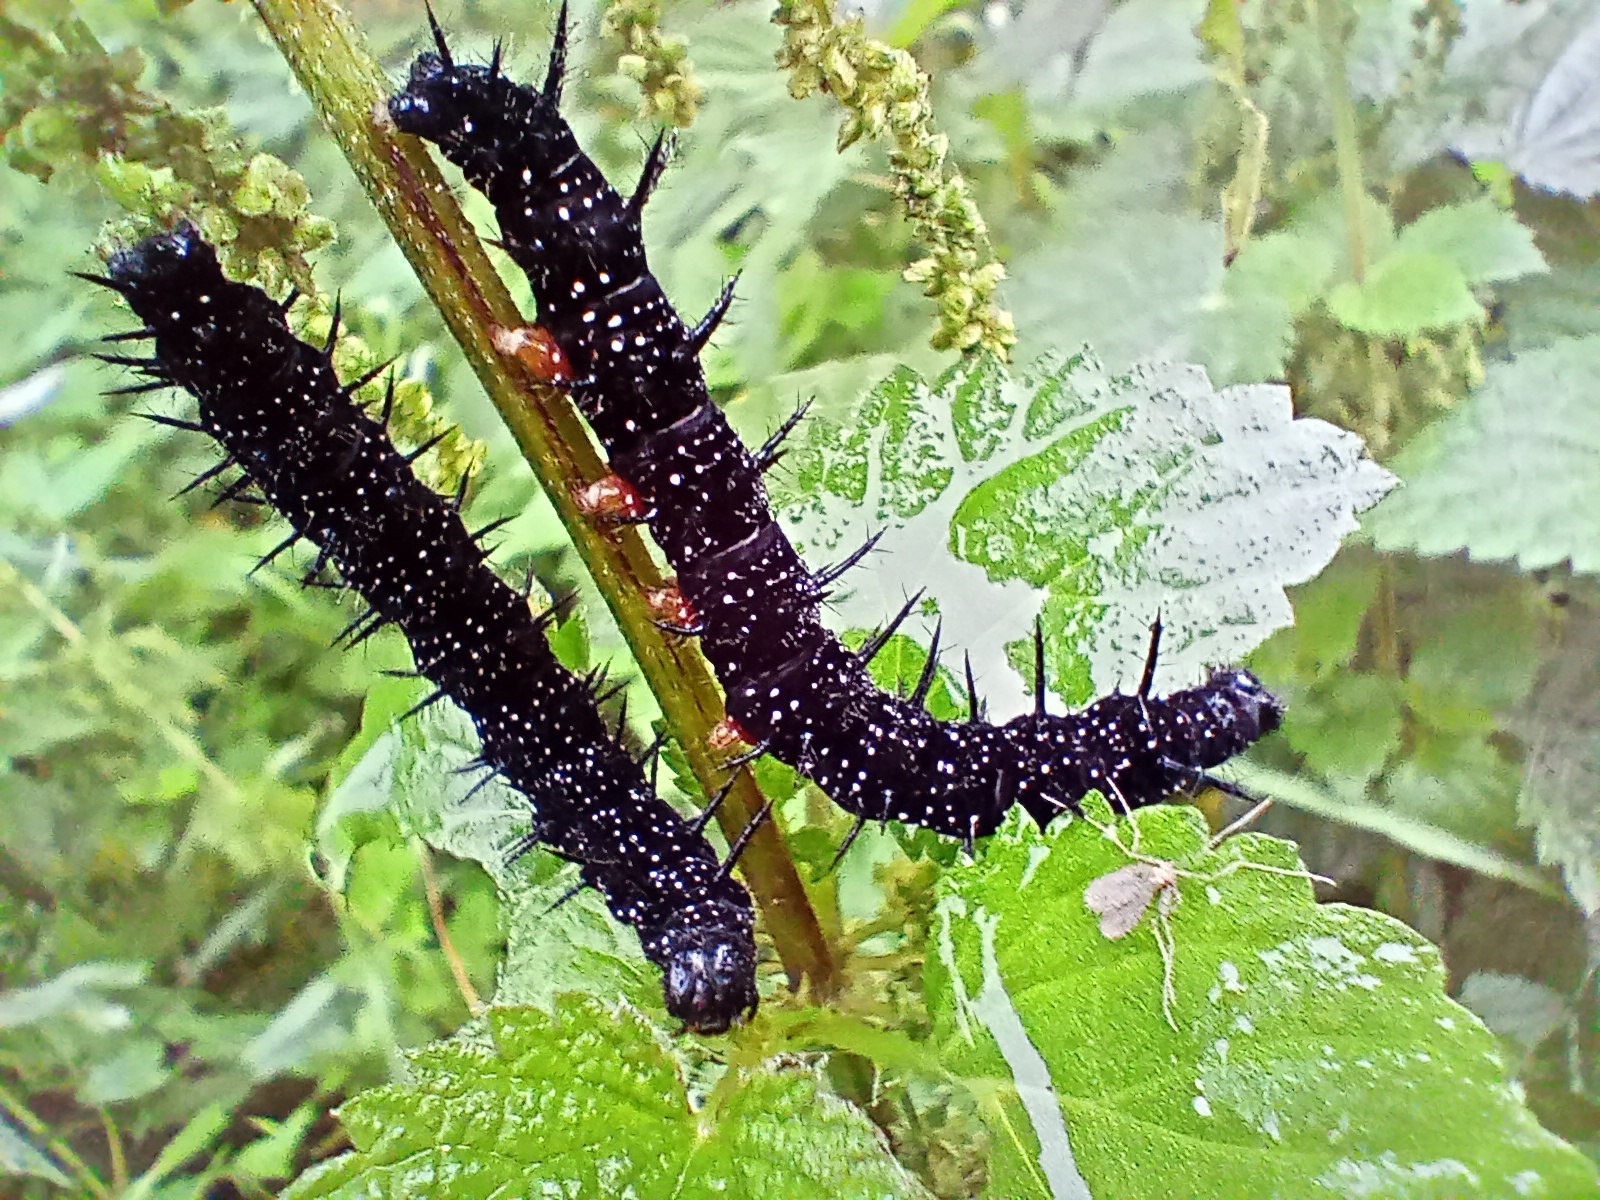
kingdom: Animalia
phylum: Arthropoda
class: Insecta
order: Lepidoptera
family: Nymphalidae
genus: Aglais
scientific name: Aglais io
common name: Peacock
